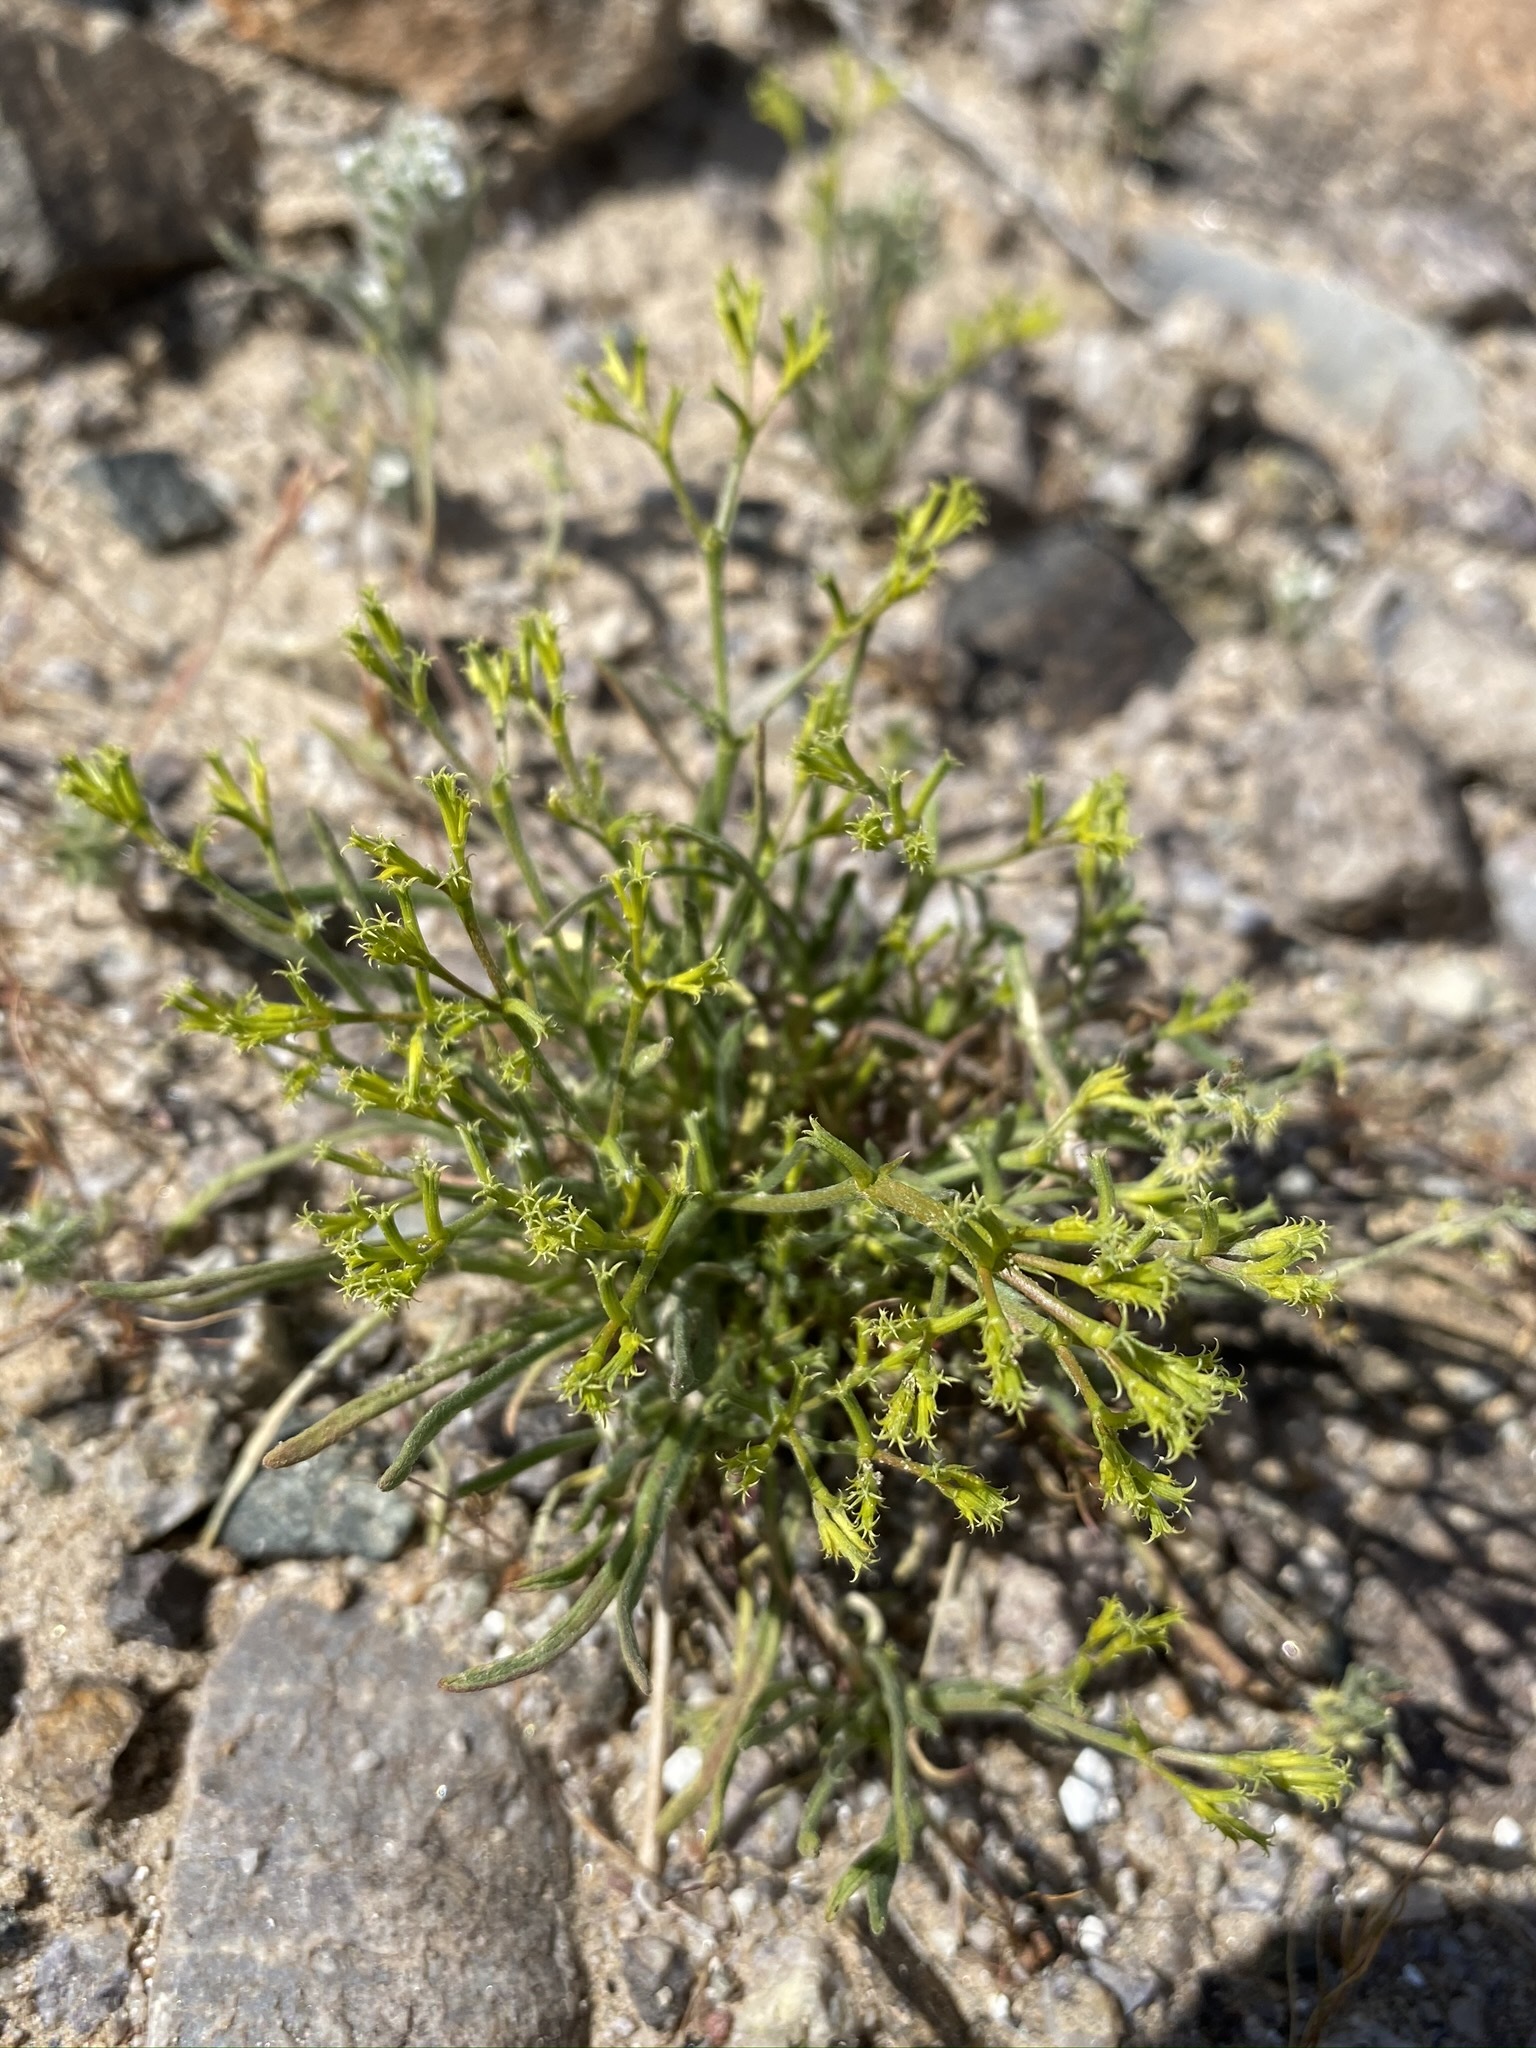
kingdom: Plantae
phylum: Tracheophyta
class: Magnoliopsida
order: Caryophyllales
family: Polygonaceae
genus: Chorizanthe
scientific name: Chorizanthe brevicornu
